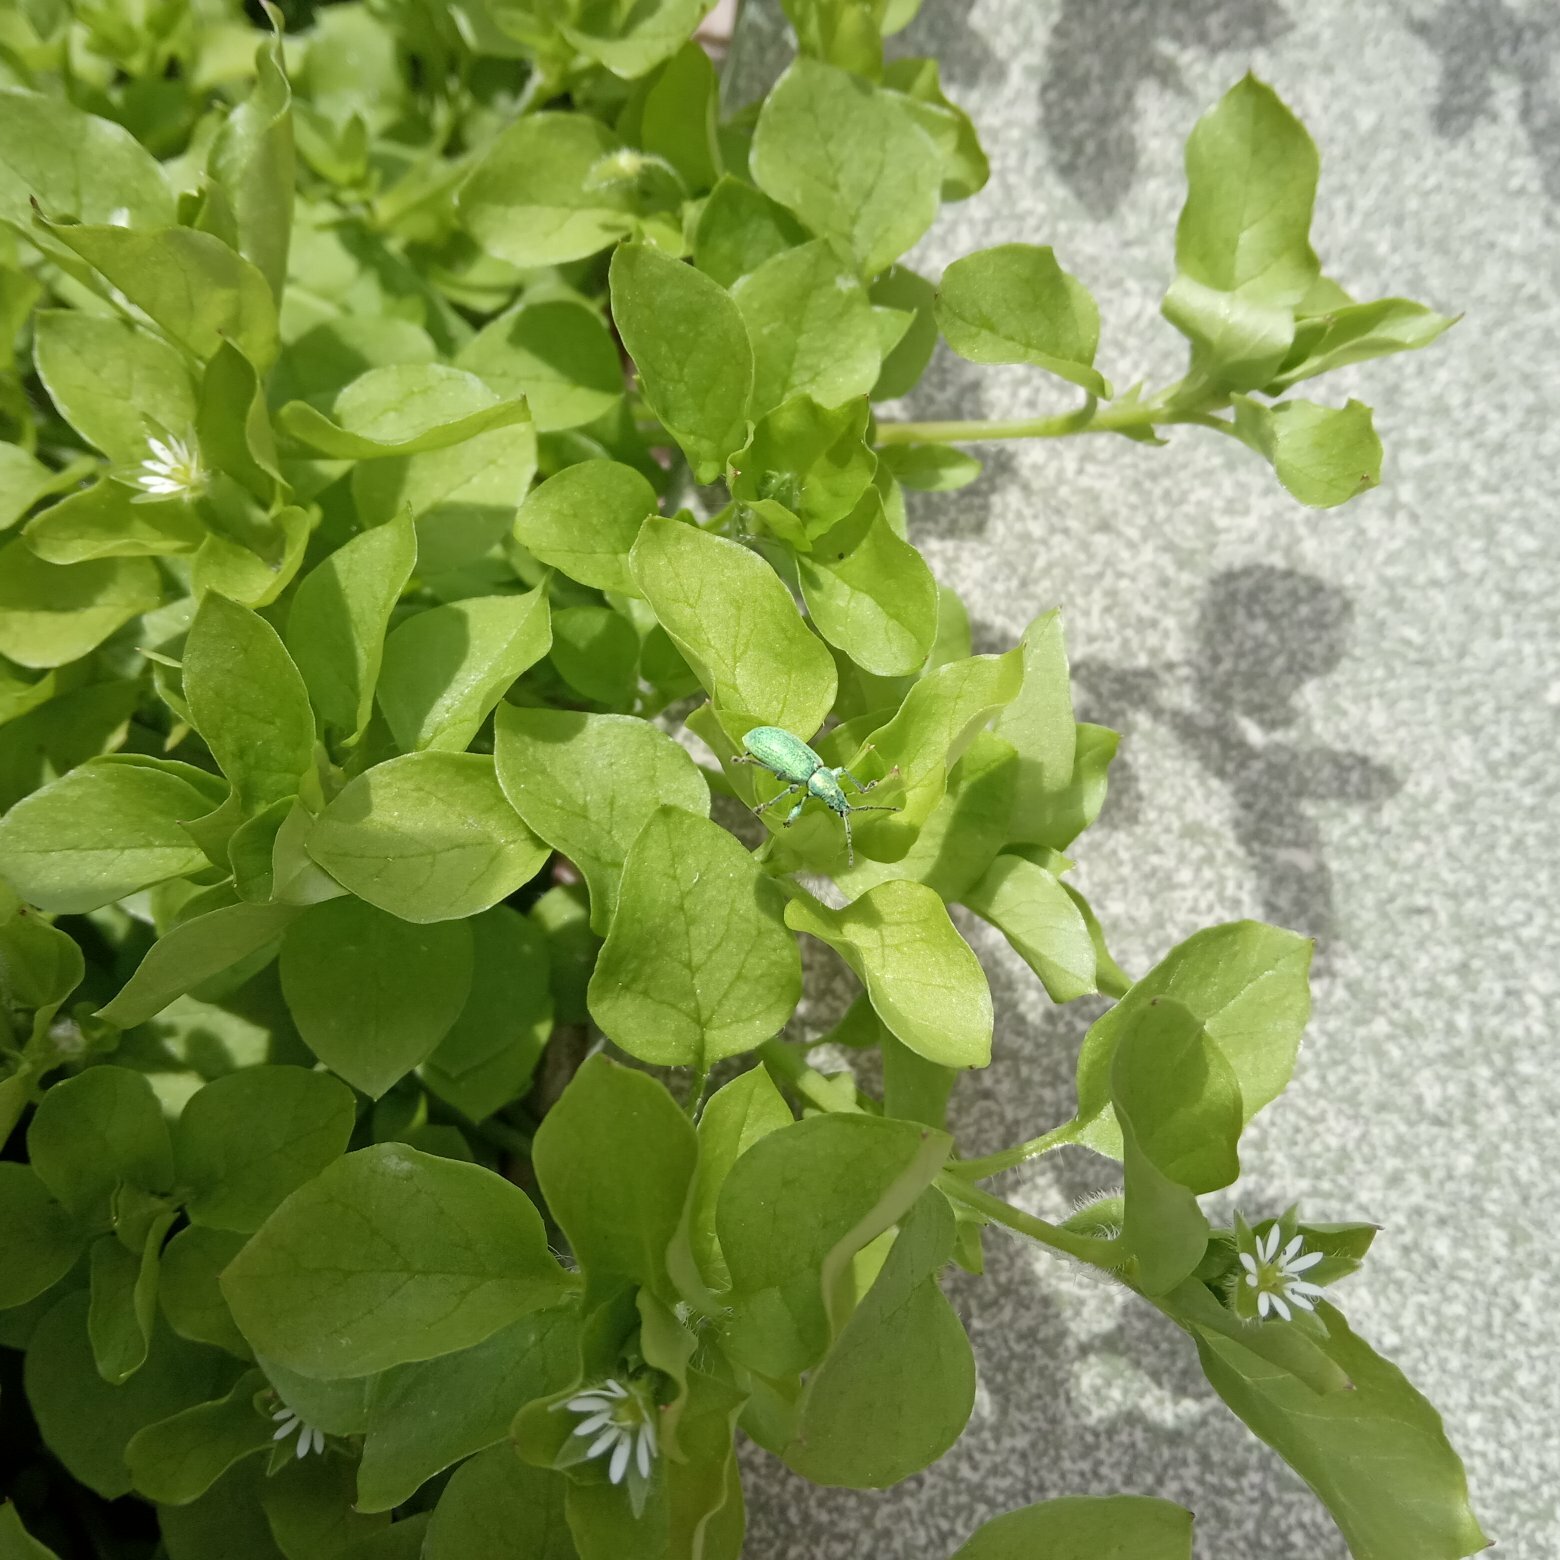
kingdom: Plantae
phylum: Tracheophyta
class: Magnoliopsida
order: Caryophyllales
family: Caryophyllaceae
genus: Stellaria
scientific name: Stellaria media
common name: Common chickweed
